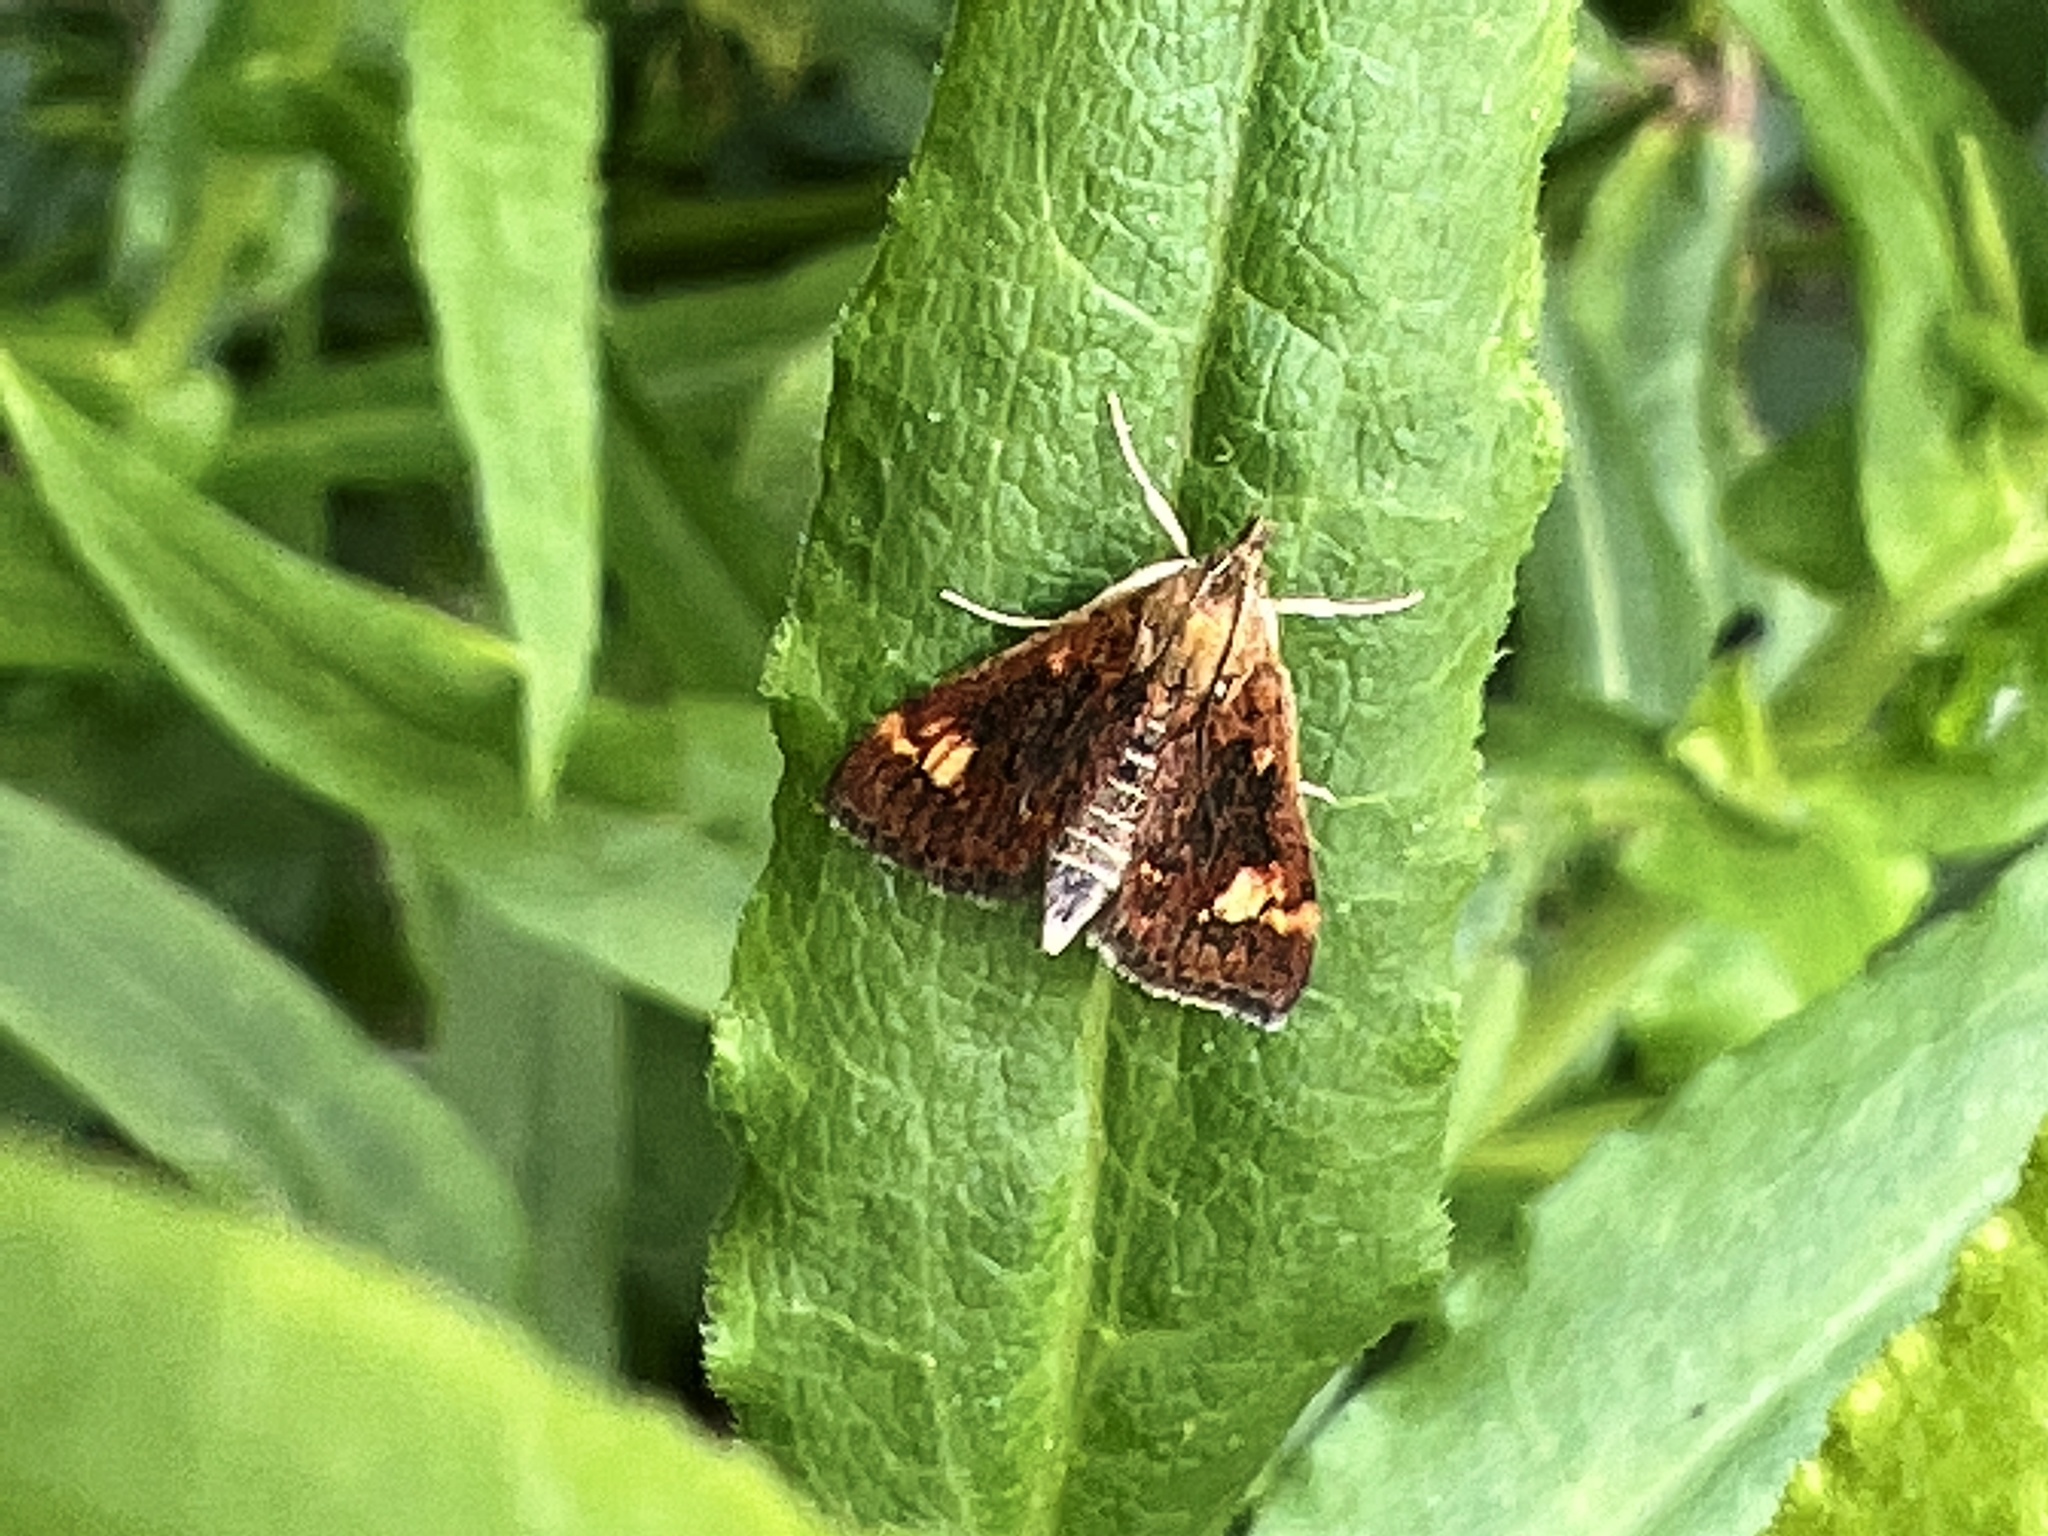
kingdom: Animalia
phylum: Arthropoda
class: Insecta
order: Lepidoptera
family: Crambidae
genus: Pyrausta
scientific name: Pyrausta orphisalis
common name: Orange mint moth
